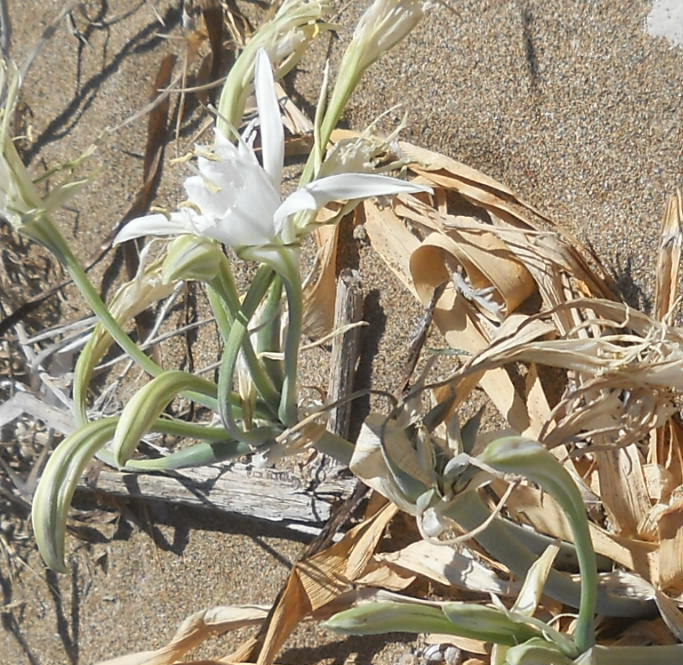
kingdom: Plantae
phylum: Tracheophyta
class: Liliopsida
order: Asparagales
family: Amaryllidaceae
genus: Pancratium
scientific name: Pancratium maritimum
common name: Sea-daffodil
